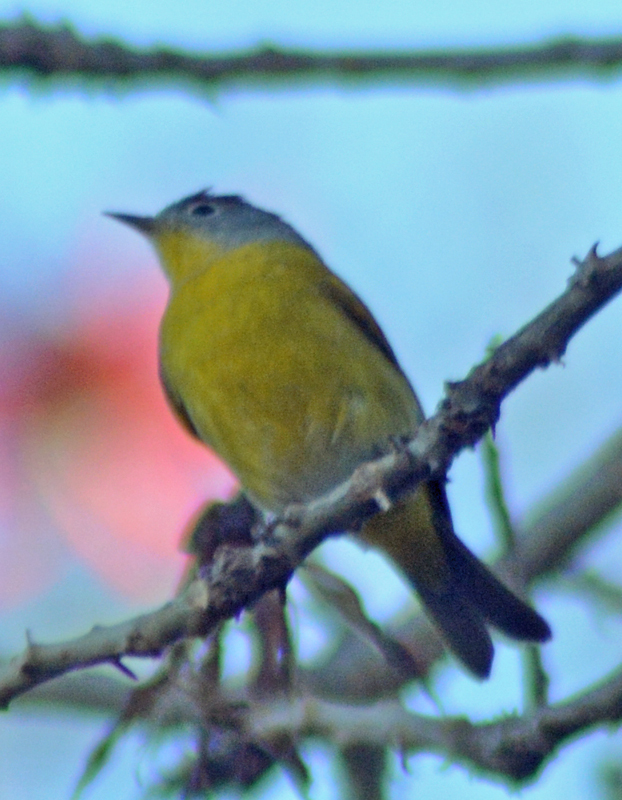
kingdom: Animalia
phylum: Chordata
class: Aves
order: Passeriformes
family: Parulidae
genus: Leiothlypis
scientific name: Leiothlypis ruficapilla
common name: Nashville warbler
